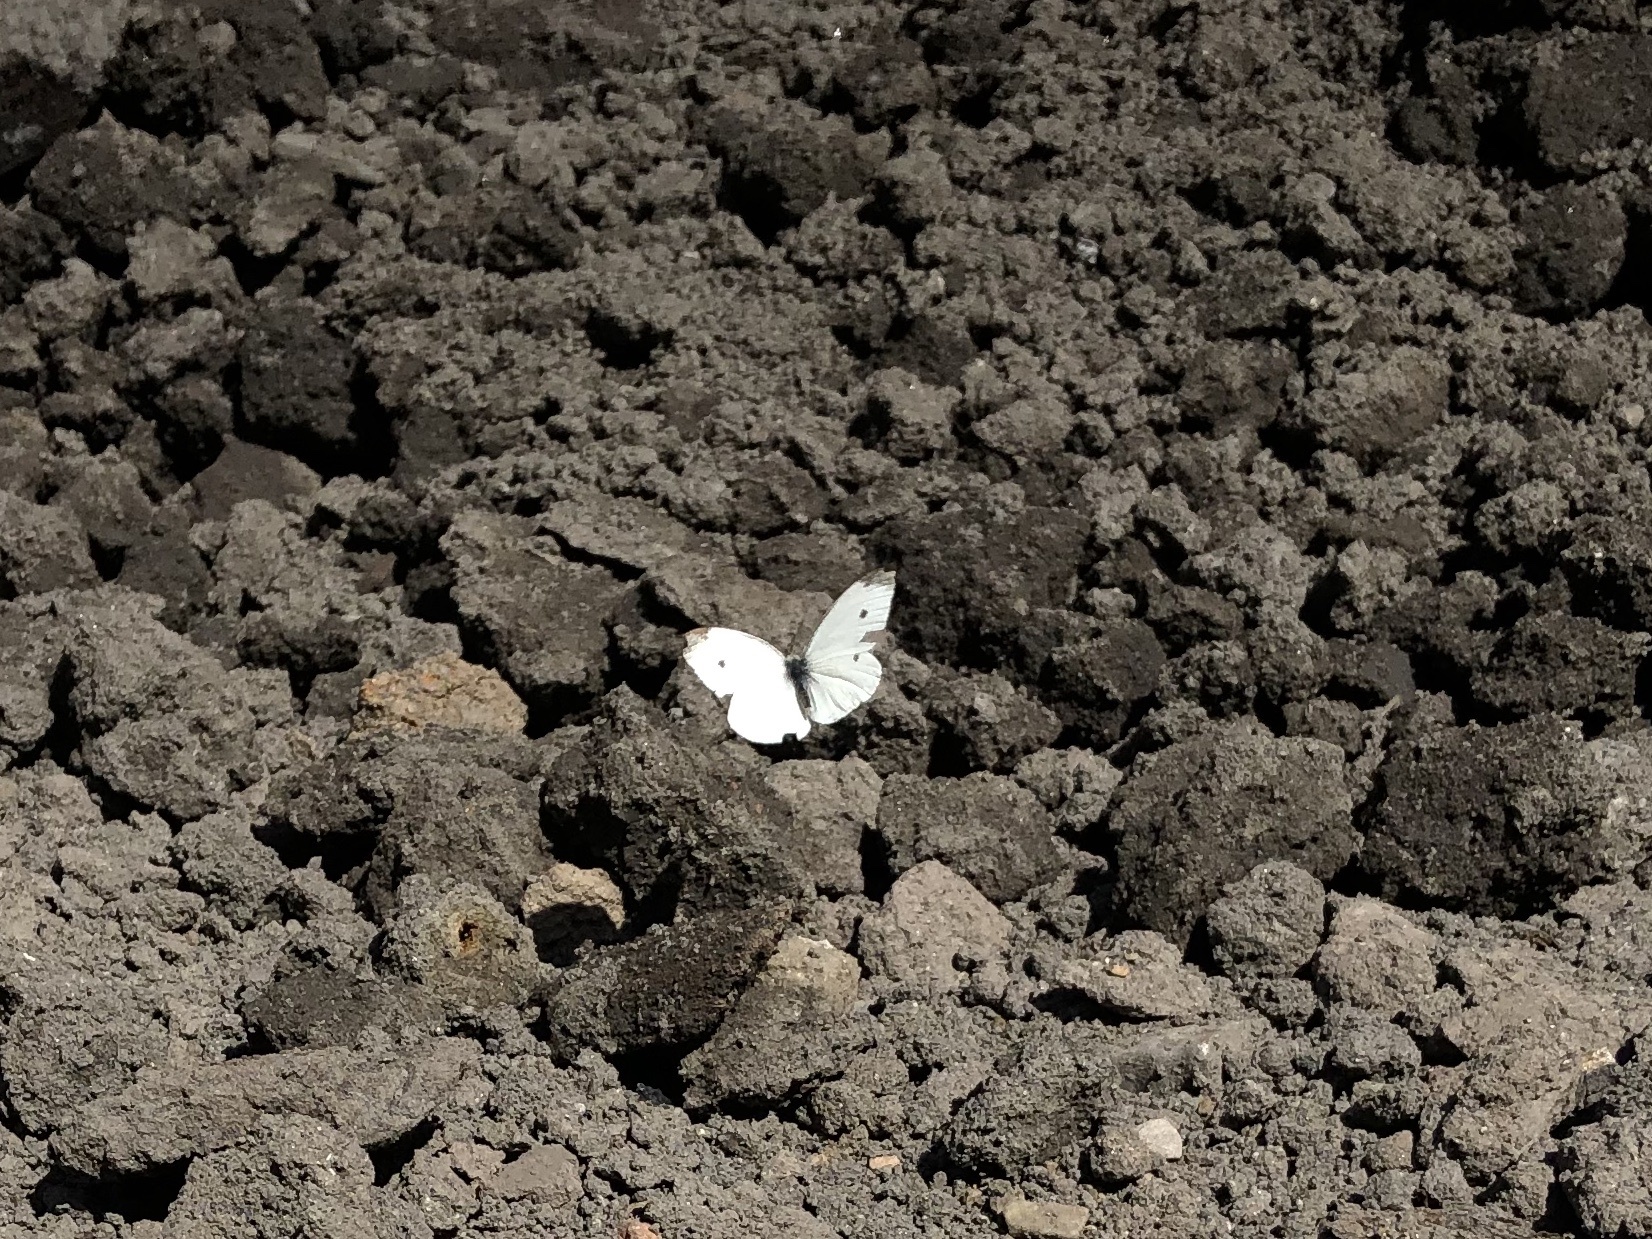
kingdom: Animalia
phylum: Arthropoda
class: Insecta
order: Lepidoptera
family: Pieridae
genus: Pieris
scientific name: Pieris rapae
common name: Small white
